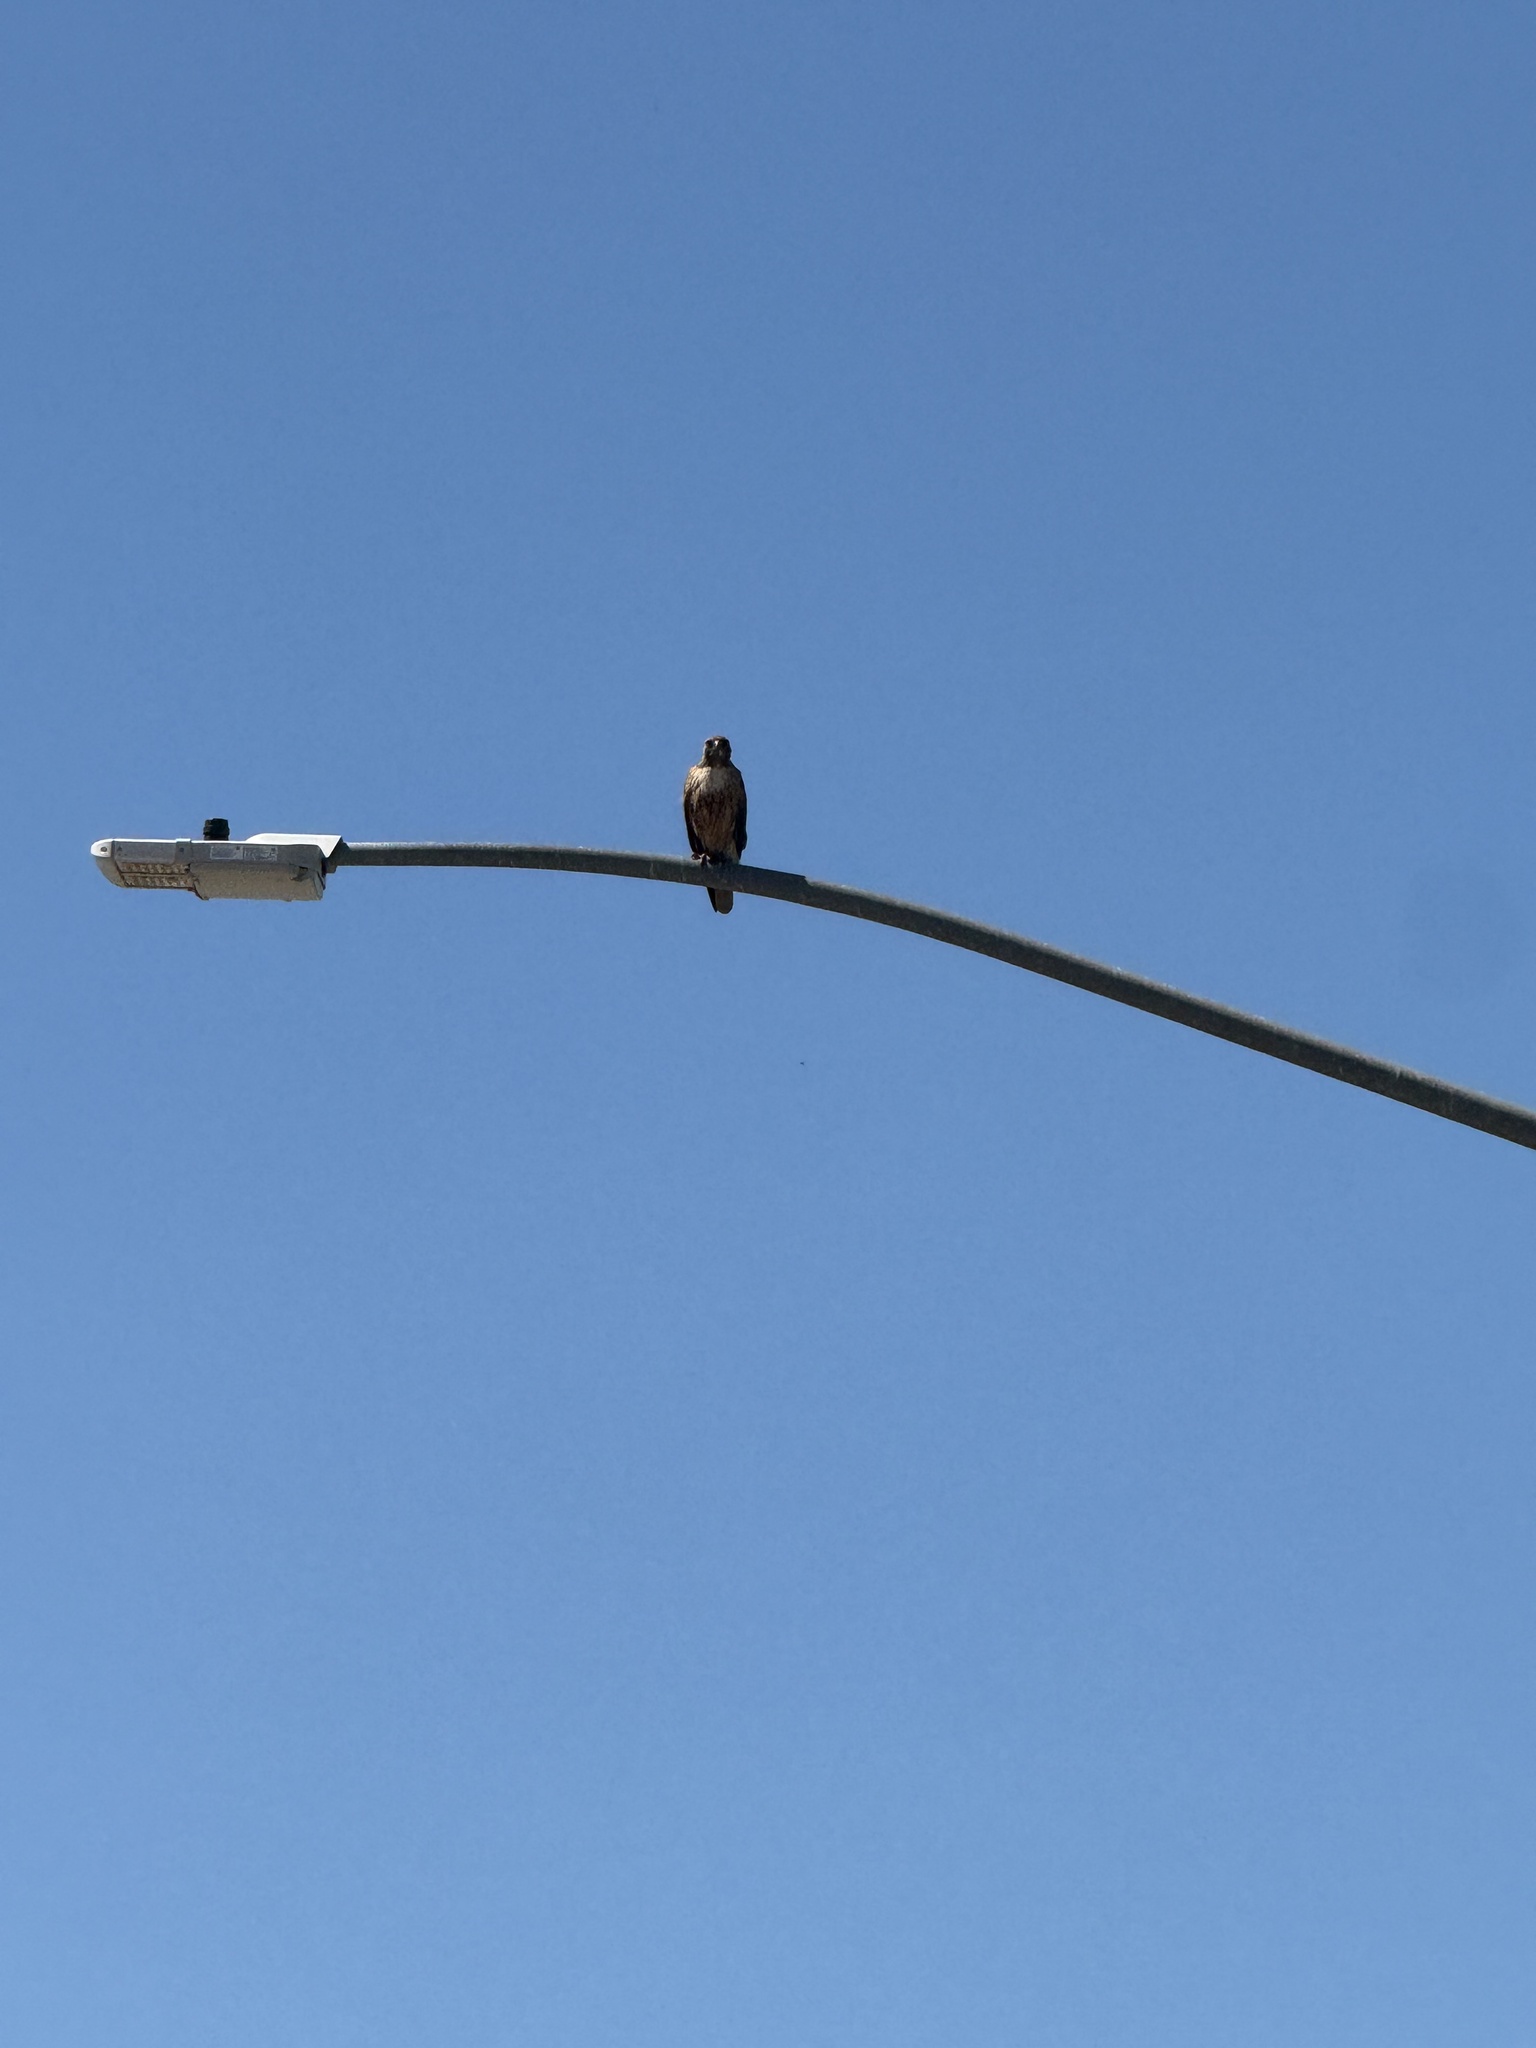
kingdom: Animalia
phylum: Chordata
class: Aves
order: Accipitriformes
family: Accipitridae
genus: Buteo
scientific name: Buteo jamaicensis
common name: Red-tailed hawk
